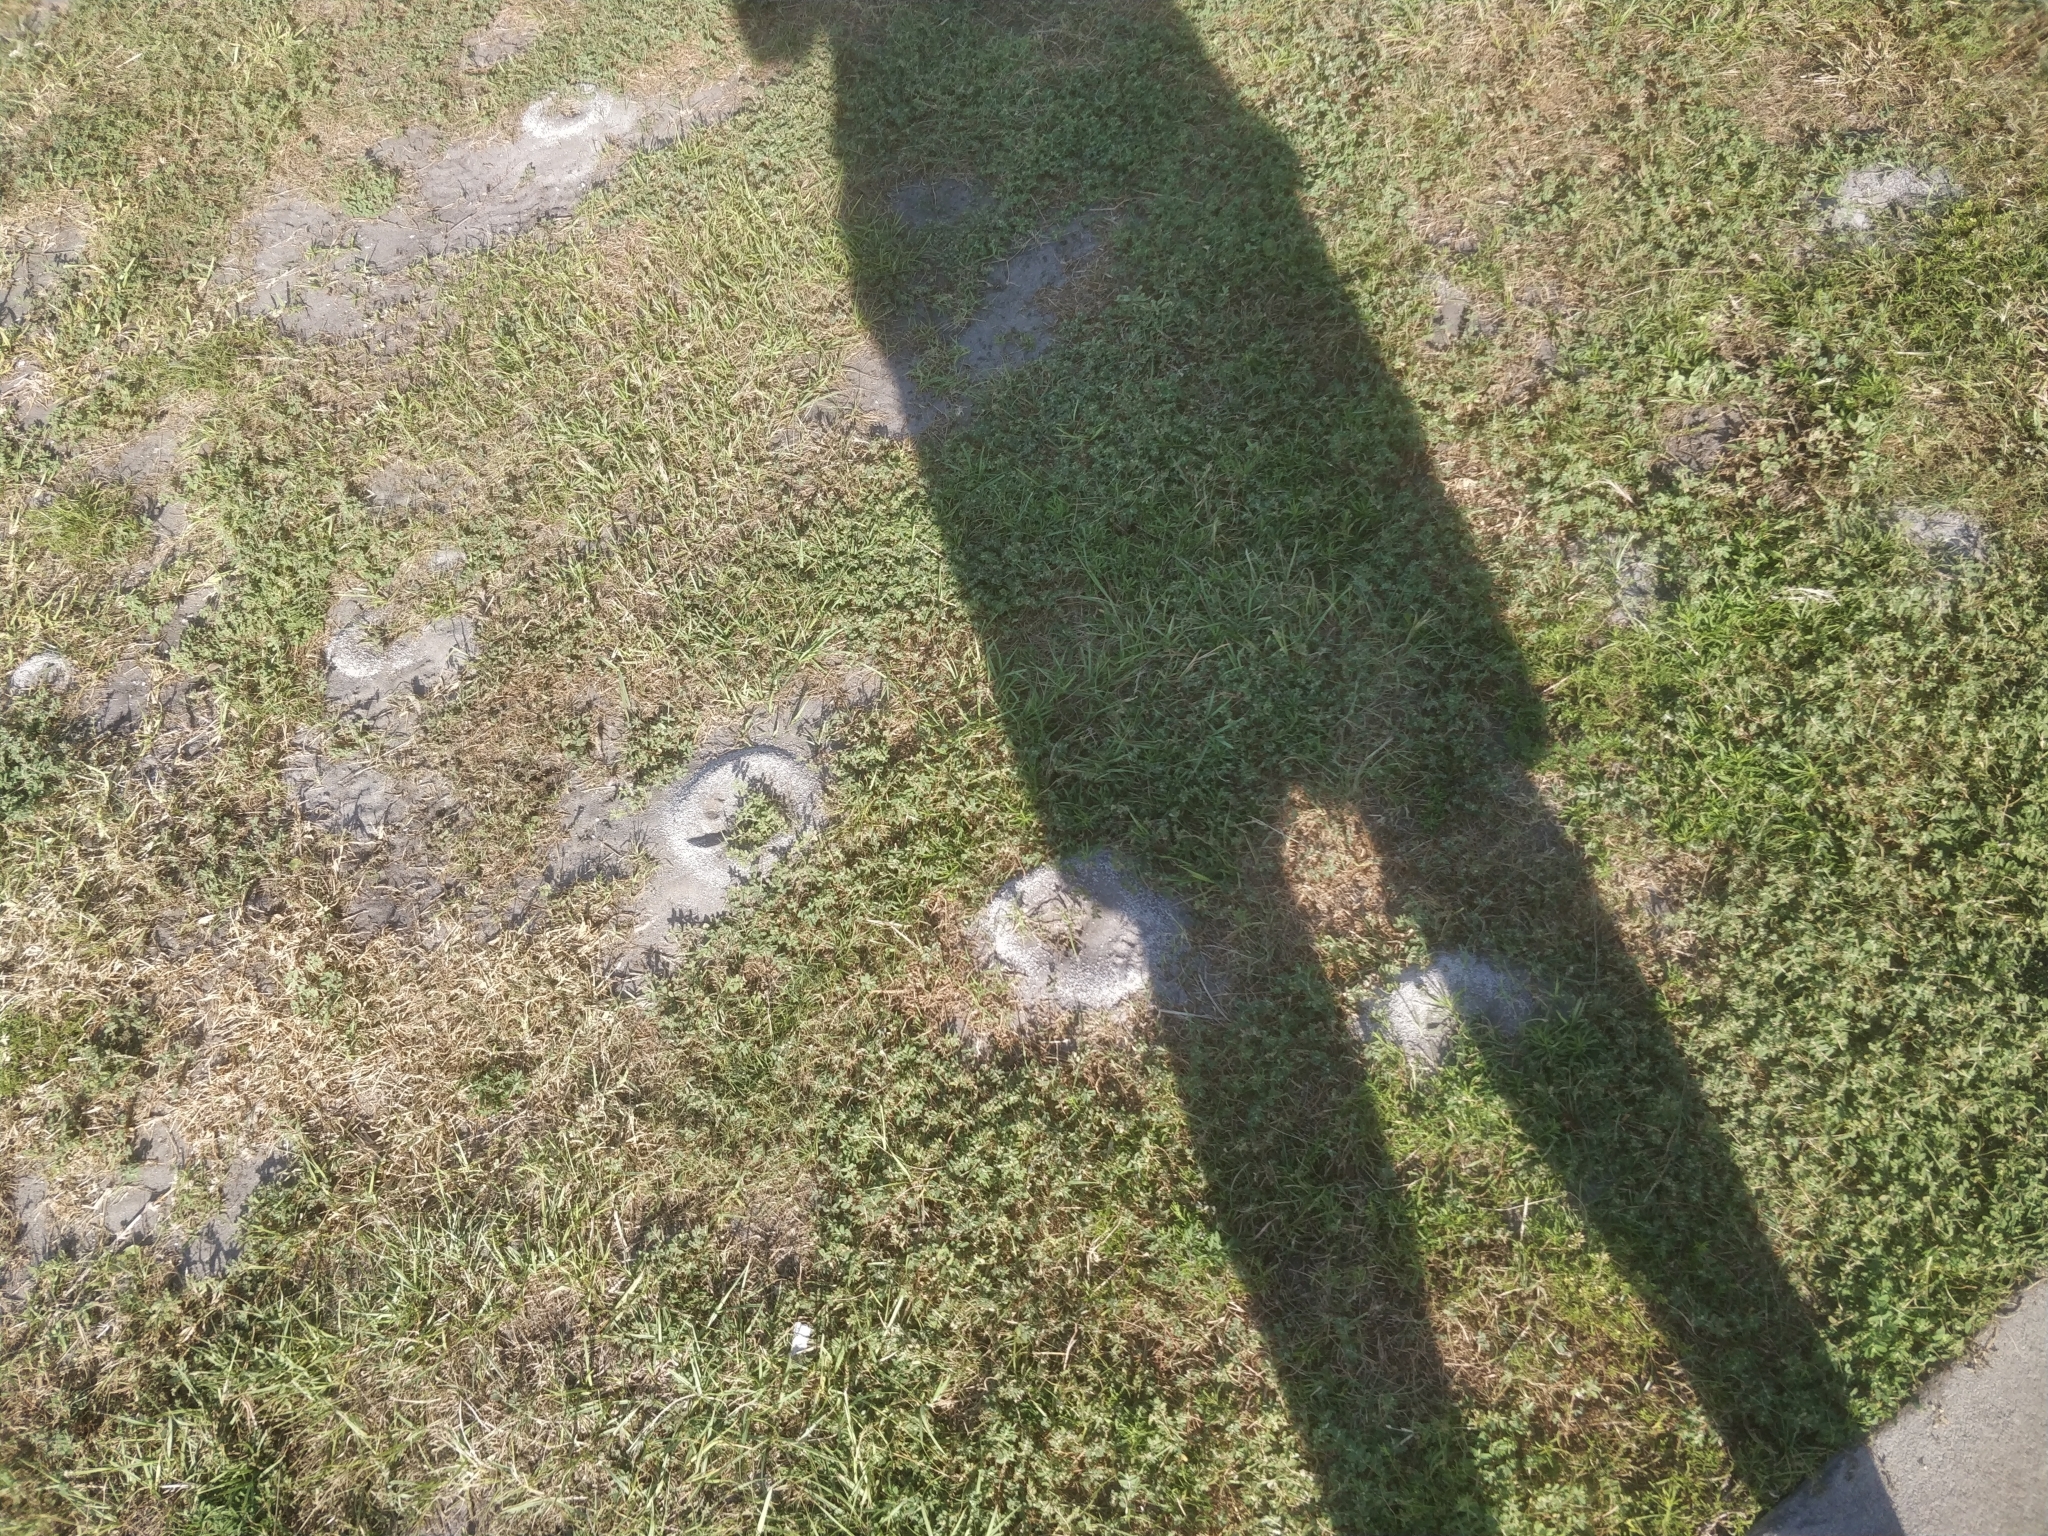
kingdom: Animalia
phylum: Arthropoda
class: Insecta
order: Hymenoptera
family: Formicidae
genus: Dorymyrmex
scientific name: Dorymyrmex bureni
